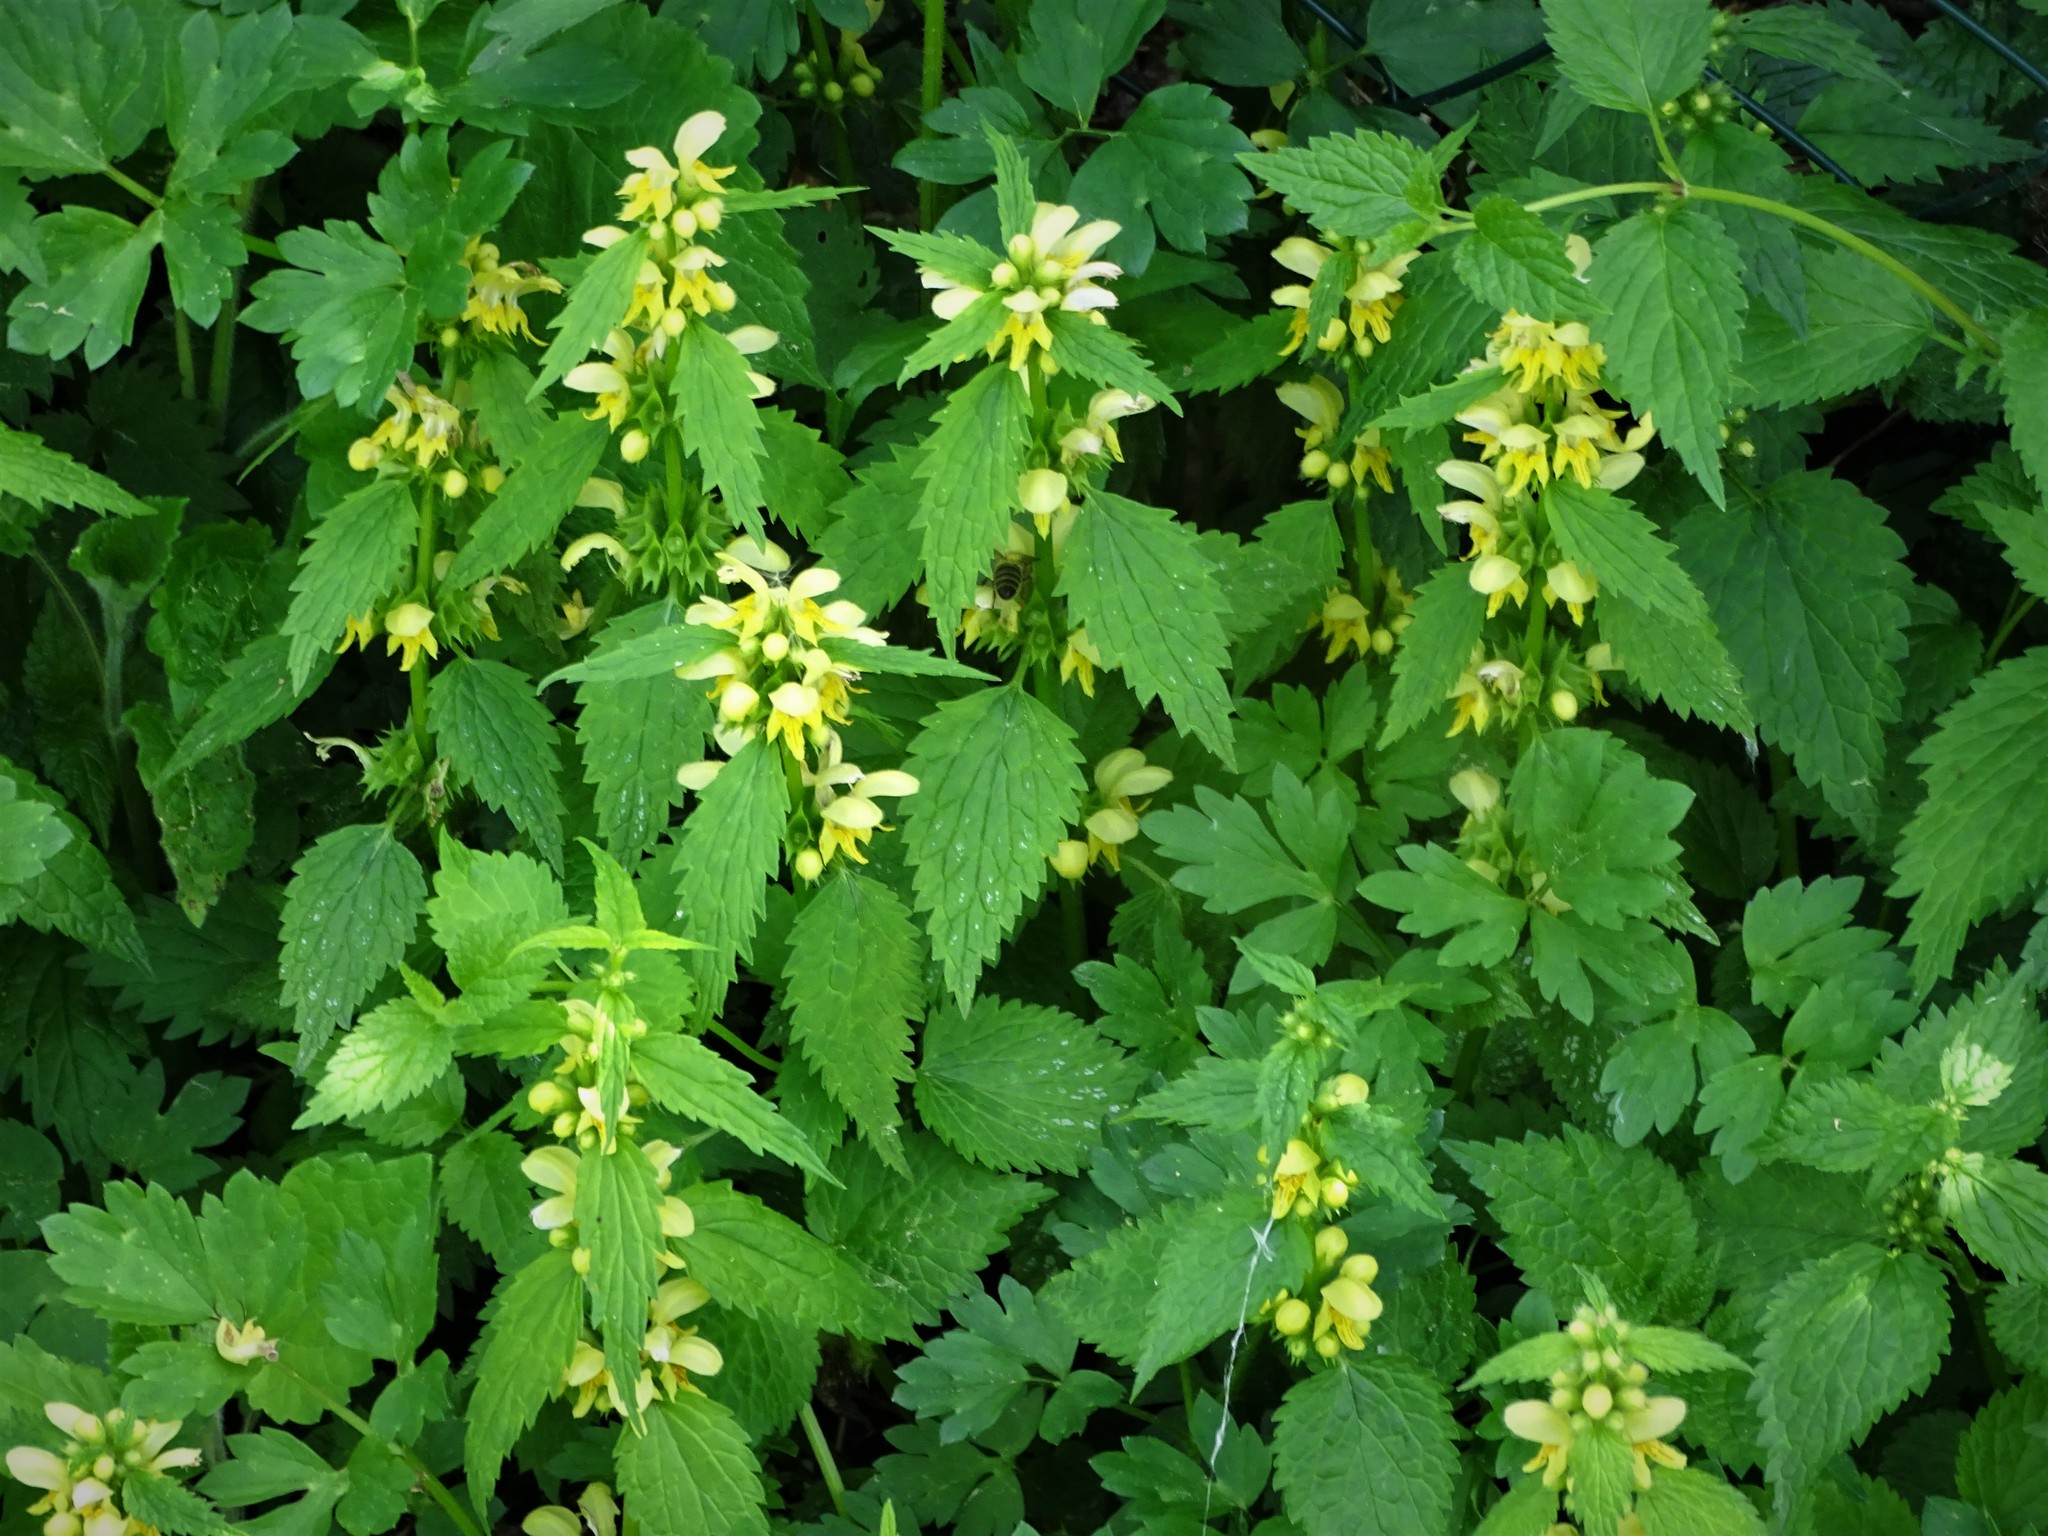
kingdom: Plantae
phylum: Tracheophyta
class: Magnoliopsida
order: Lamiales
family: Lamiaceae
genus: Lamium
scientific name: Lamium galeobdolon
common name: Yellow archangel
